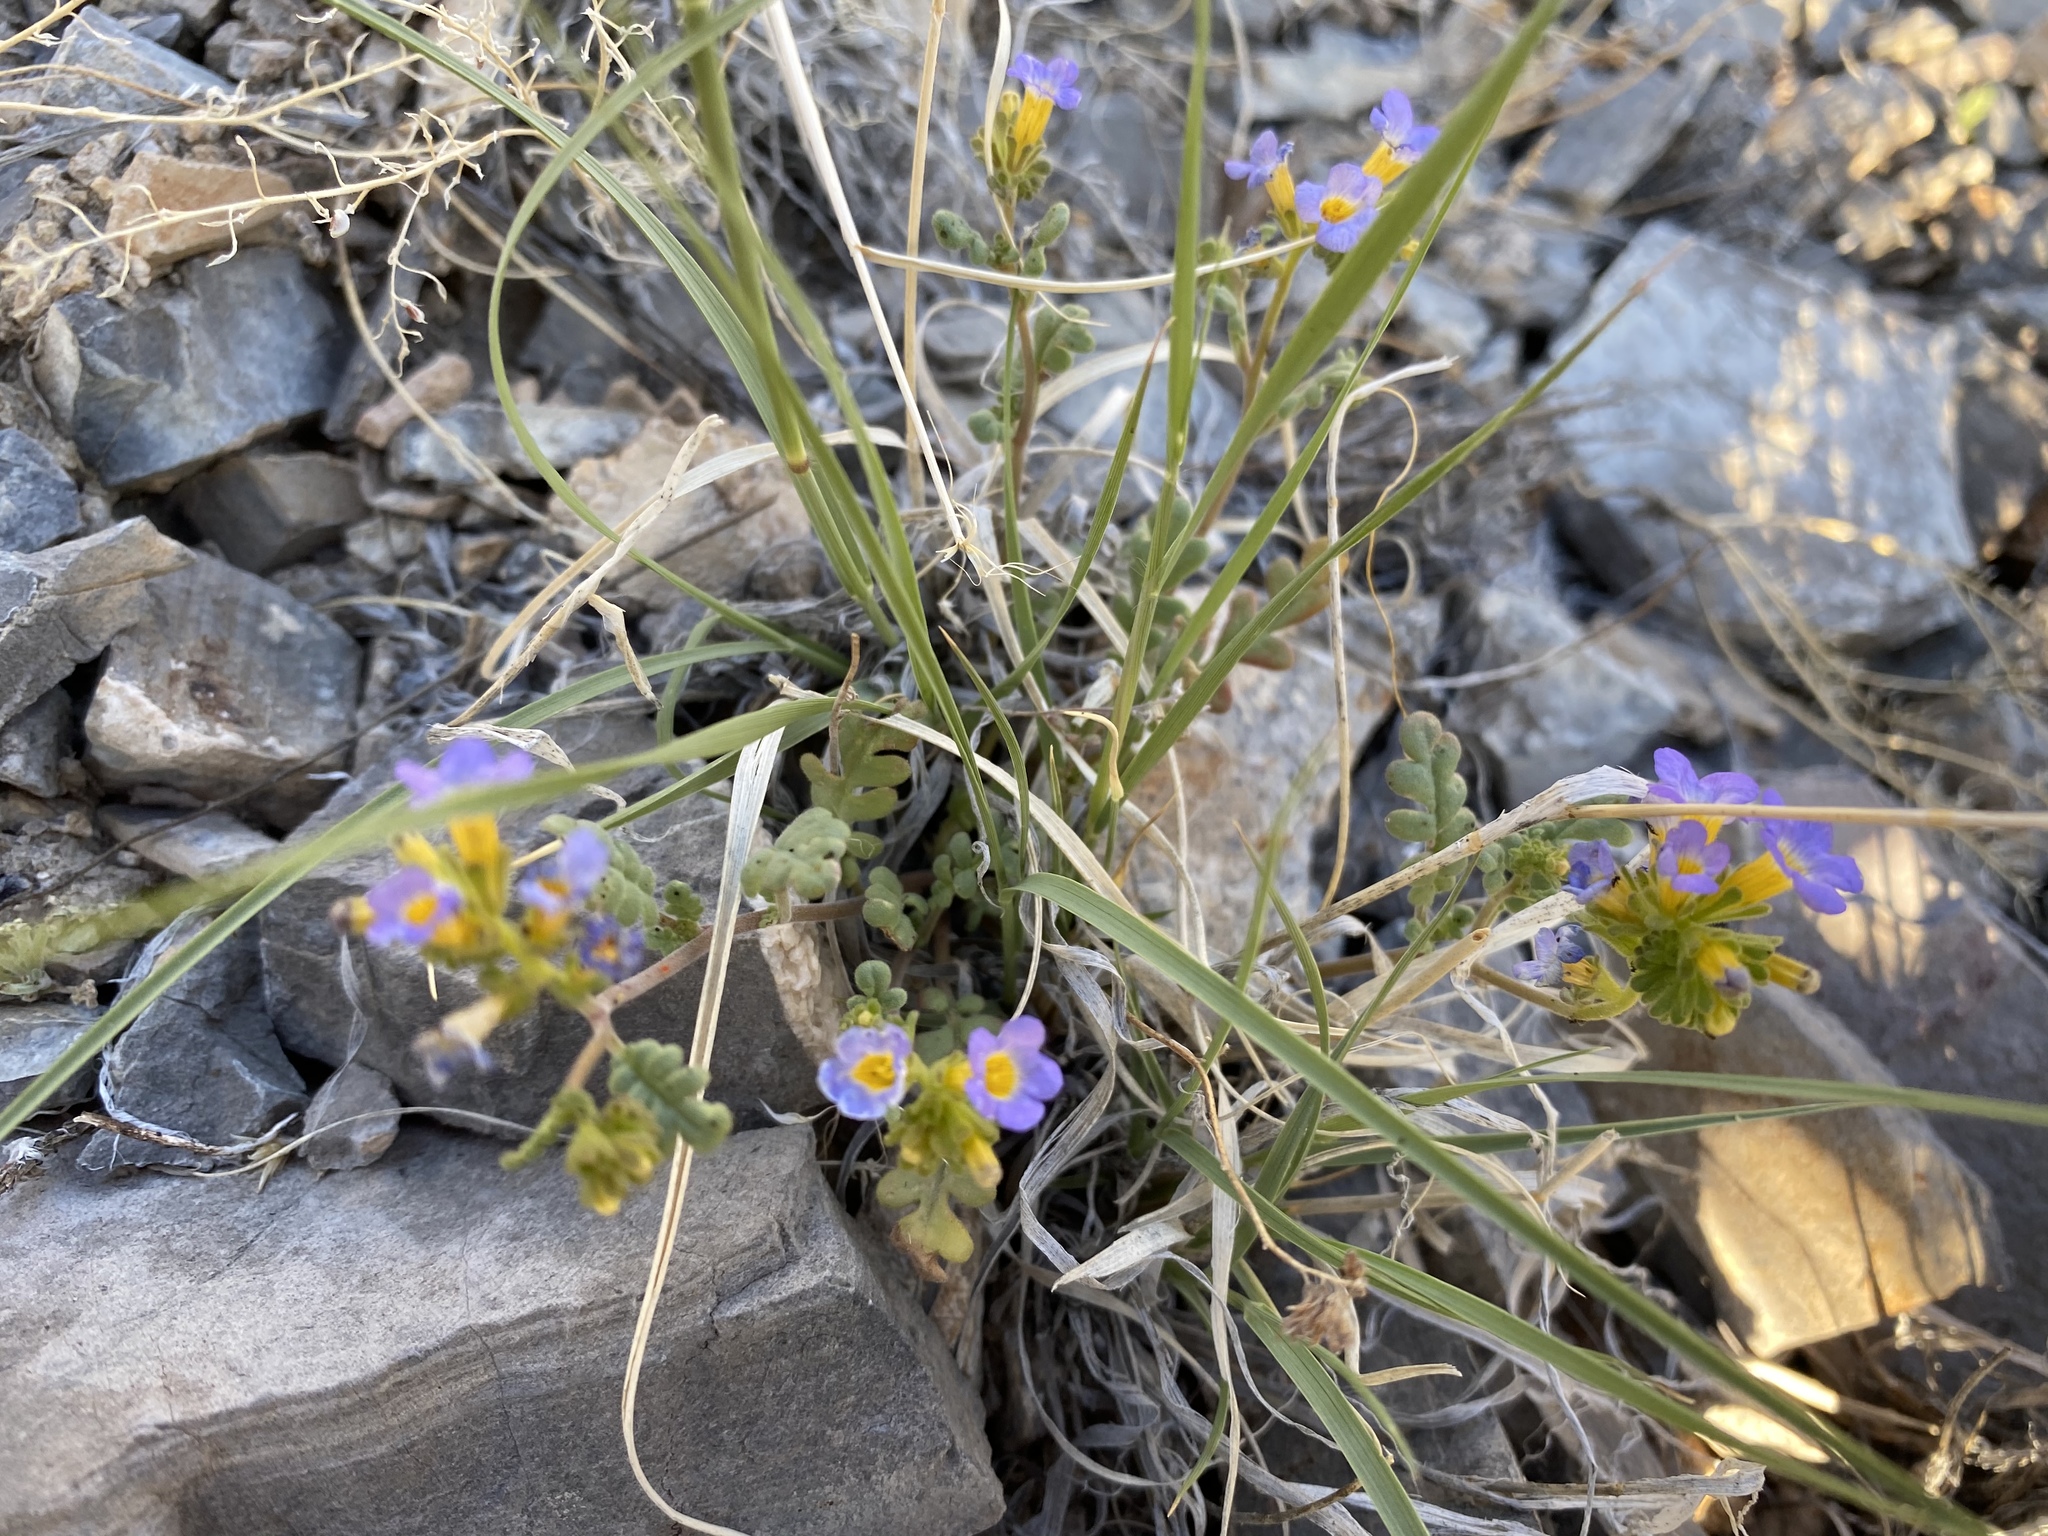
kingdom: Plantae
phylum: Tracheophyta
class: Magnoliopsida
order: Boraginales
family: Hydrophyllaceae
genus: Phacelia
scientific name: Phacelia fremontii
